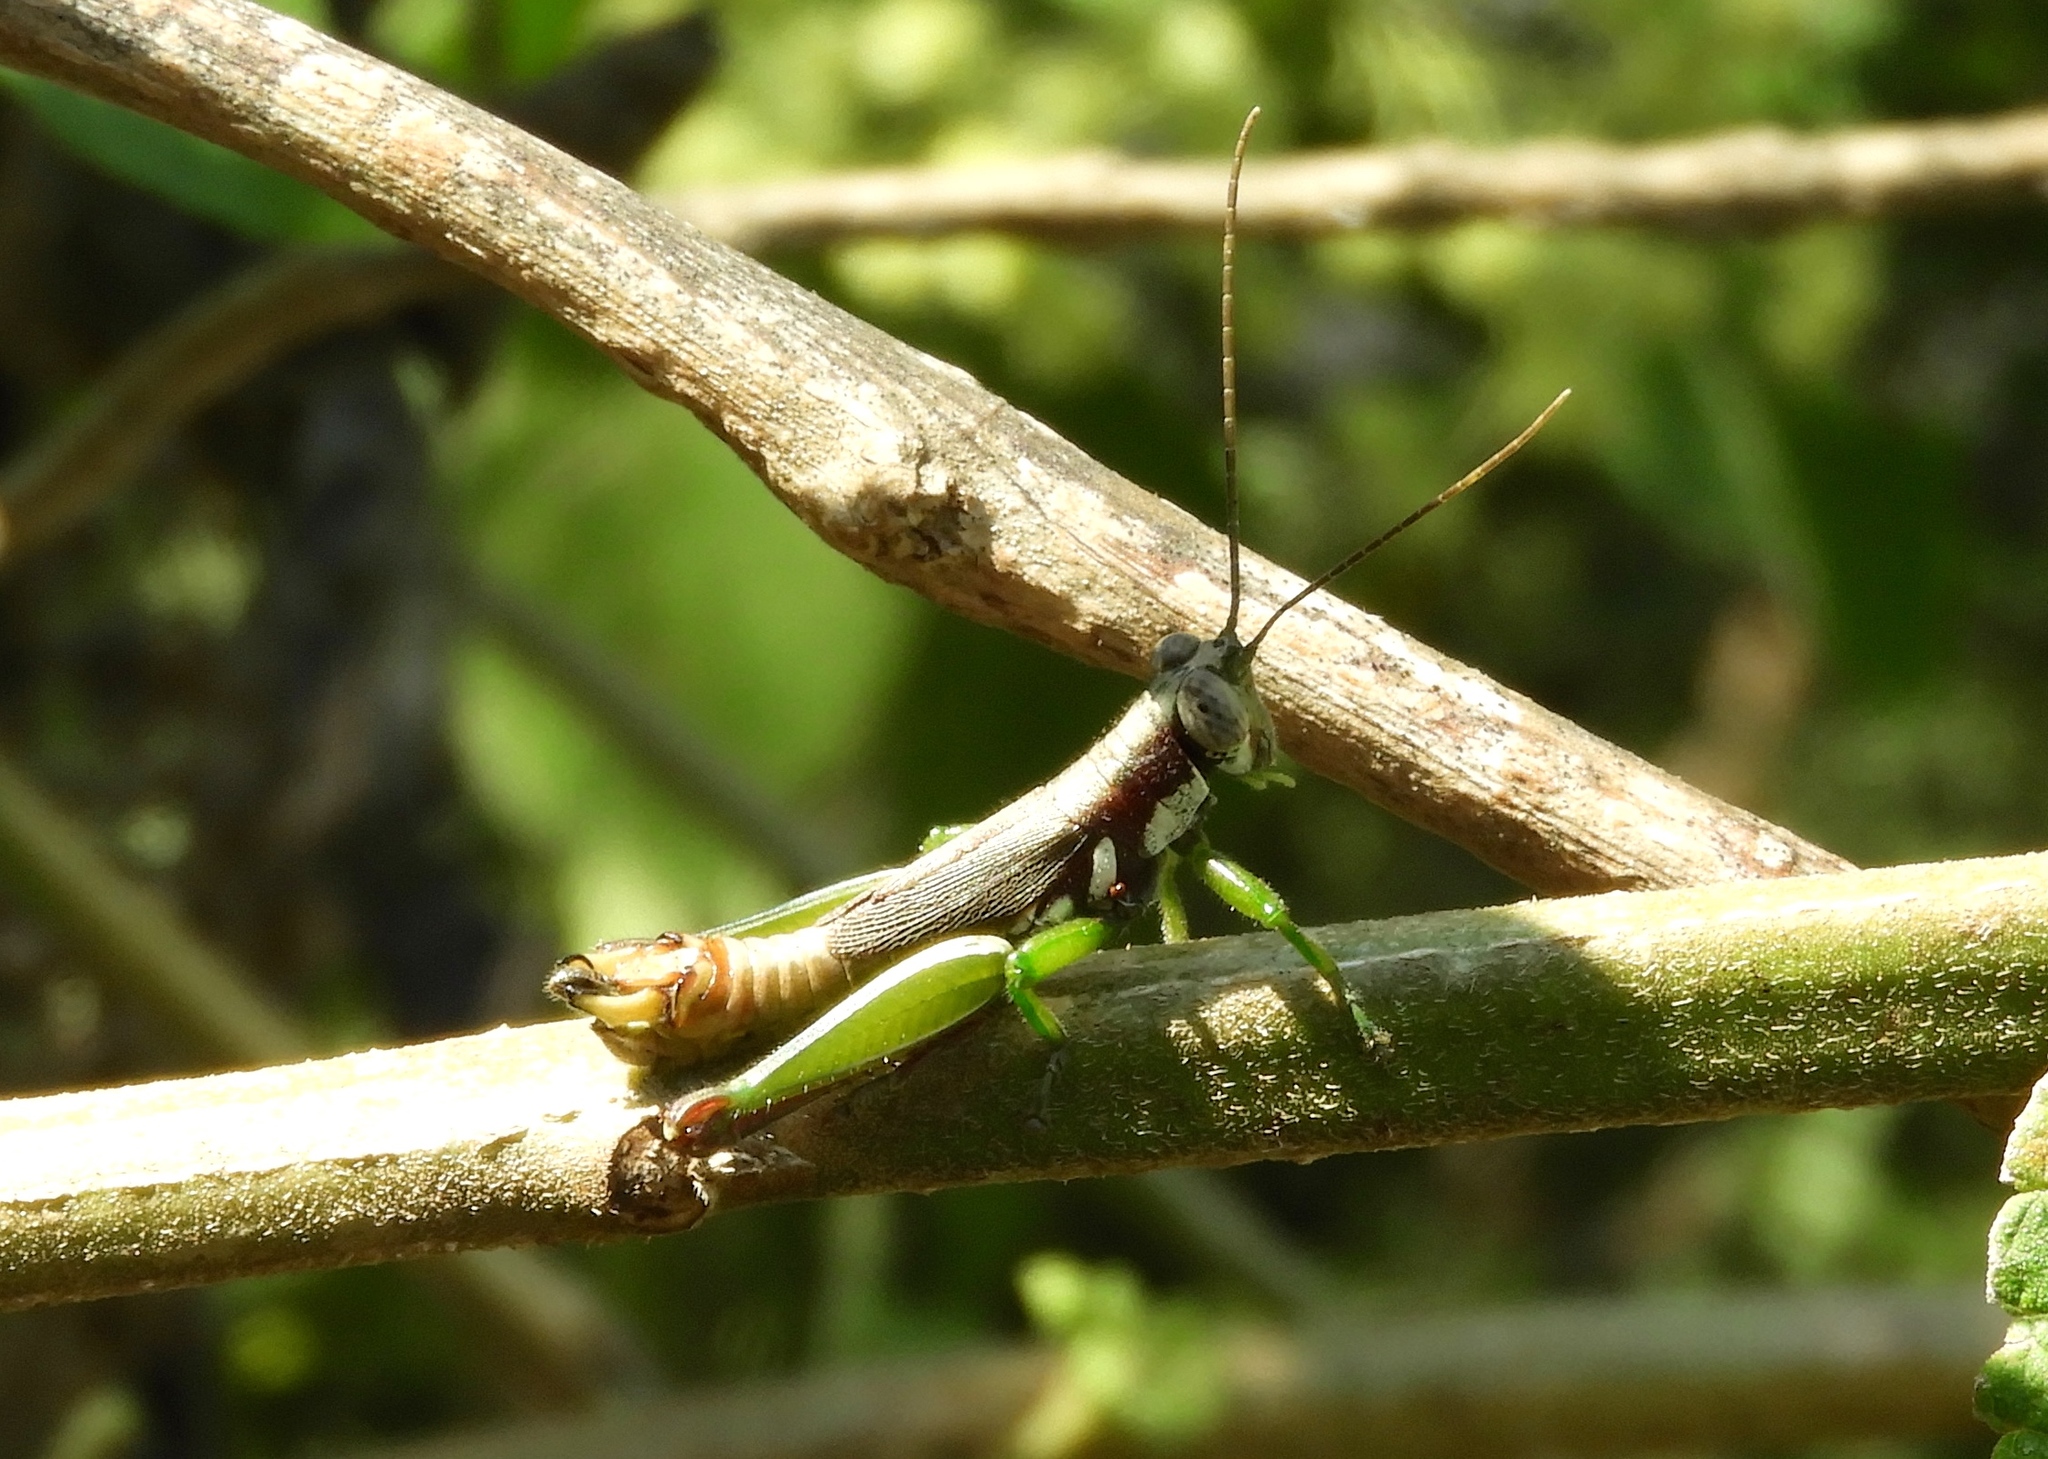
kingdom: Animalia
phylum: Arthropoda
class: Insecta
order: Orthoptera
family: Acrididae
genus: Proctolabus
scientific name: Proctolabus cerciatus
